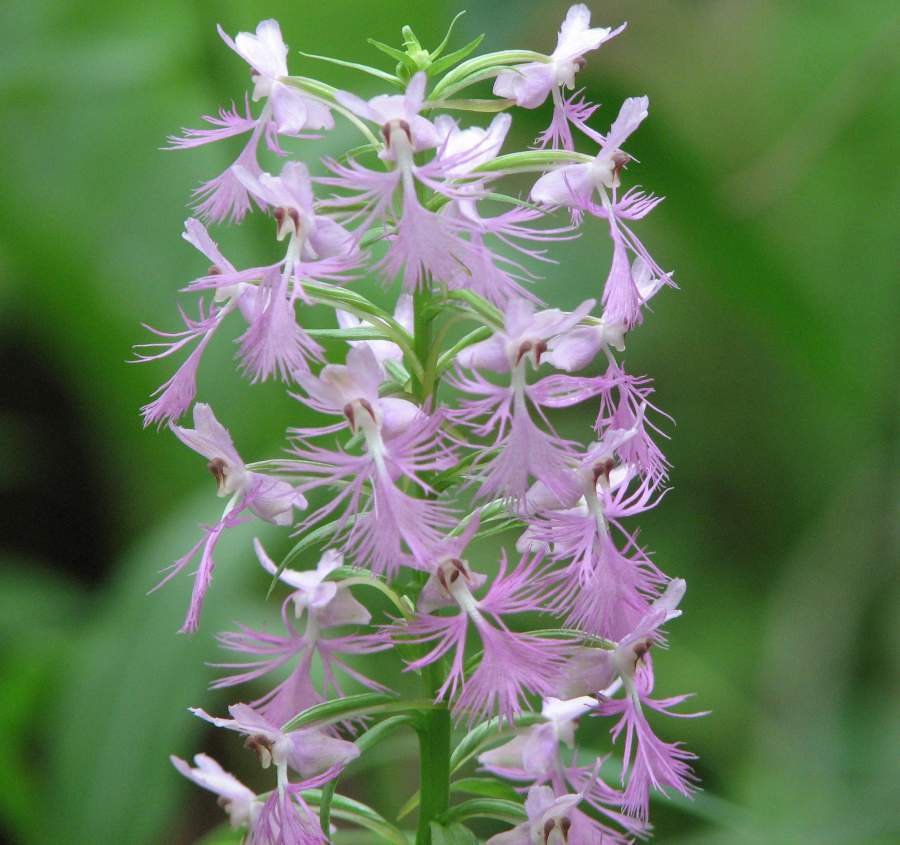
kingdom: Plantae
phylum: Tracheophyta
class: Liliopsida
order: Asparagales
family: Orchidaceae
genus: Platanthera
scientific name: Platanthera andrewsii
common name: Andrews' bog orchid
